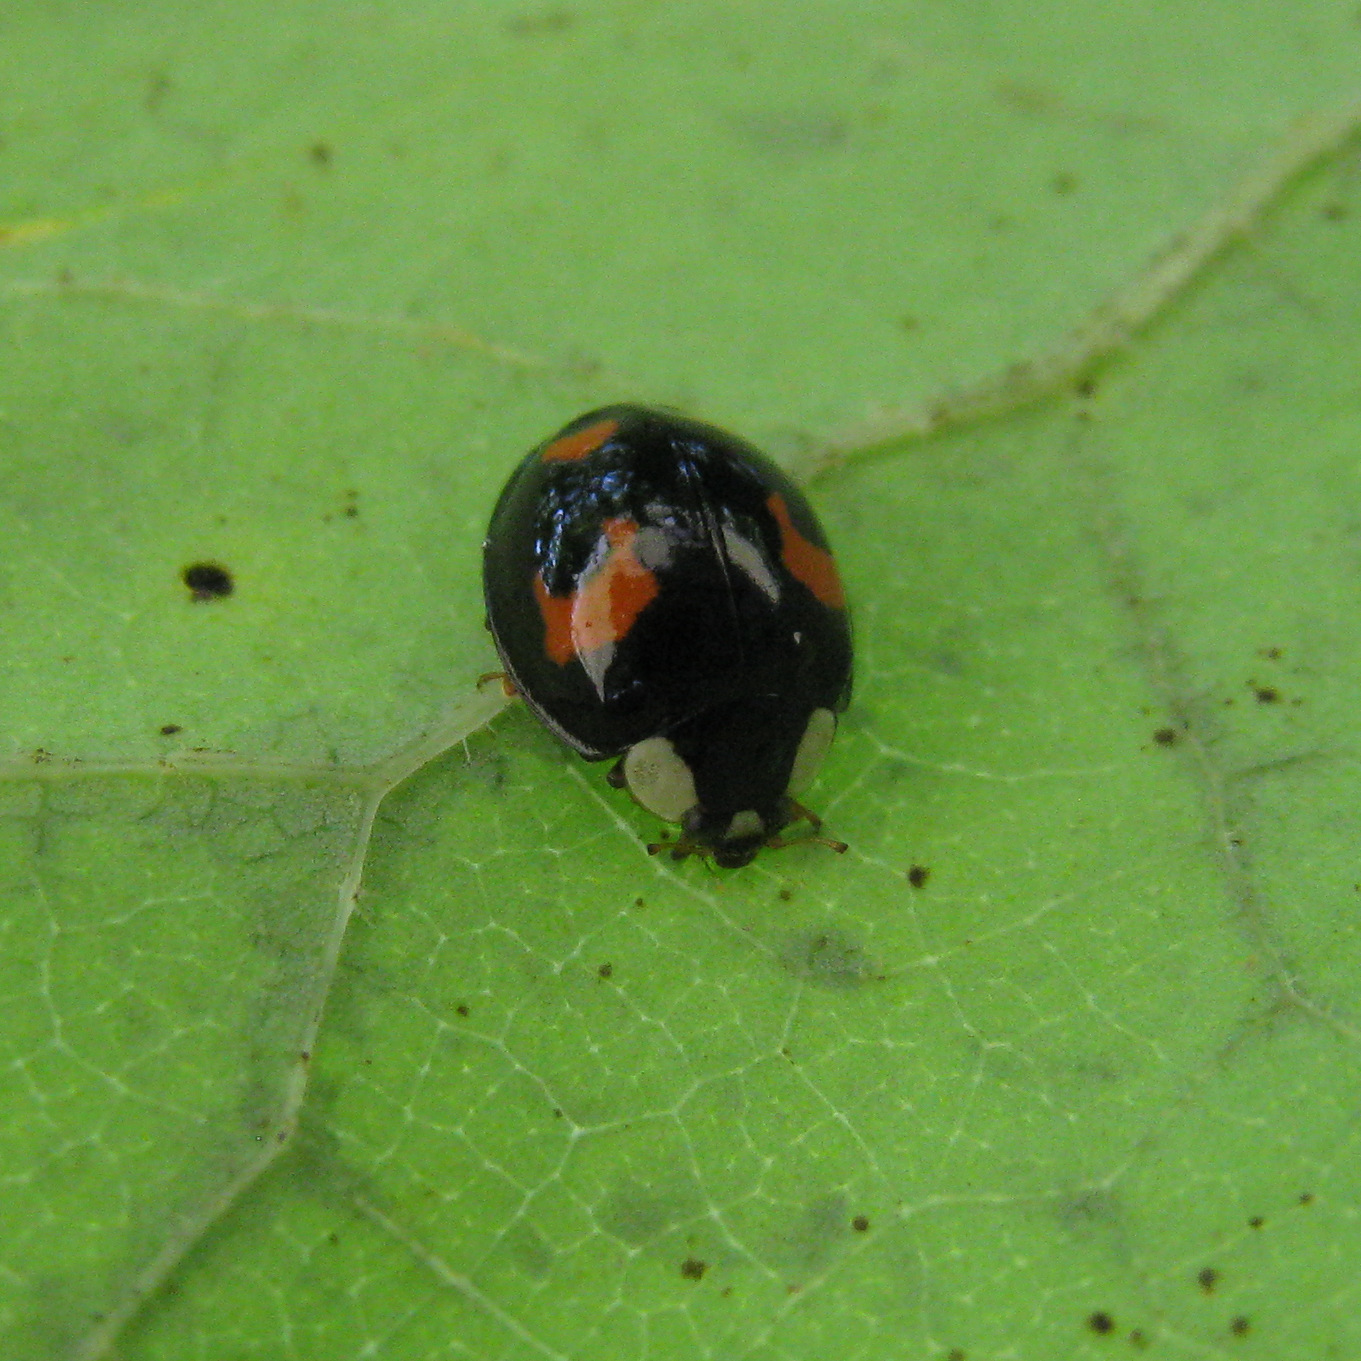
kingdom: Animalia
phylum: Arthropoda
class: Insecta
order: Coleoptera
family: Coccinellidae
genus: Harmonia
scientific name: Harmonia axyridis
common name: Harlequin ladybird
